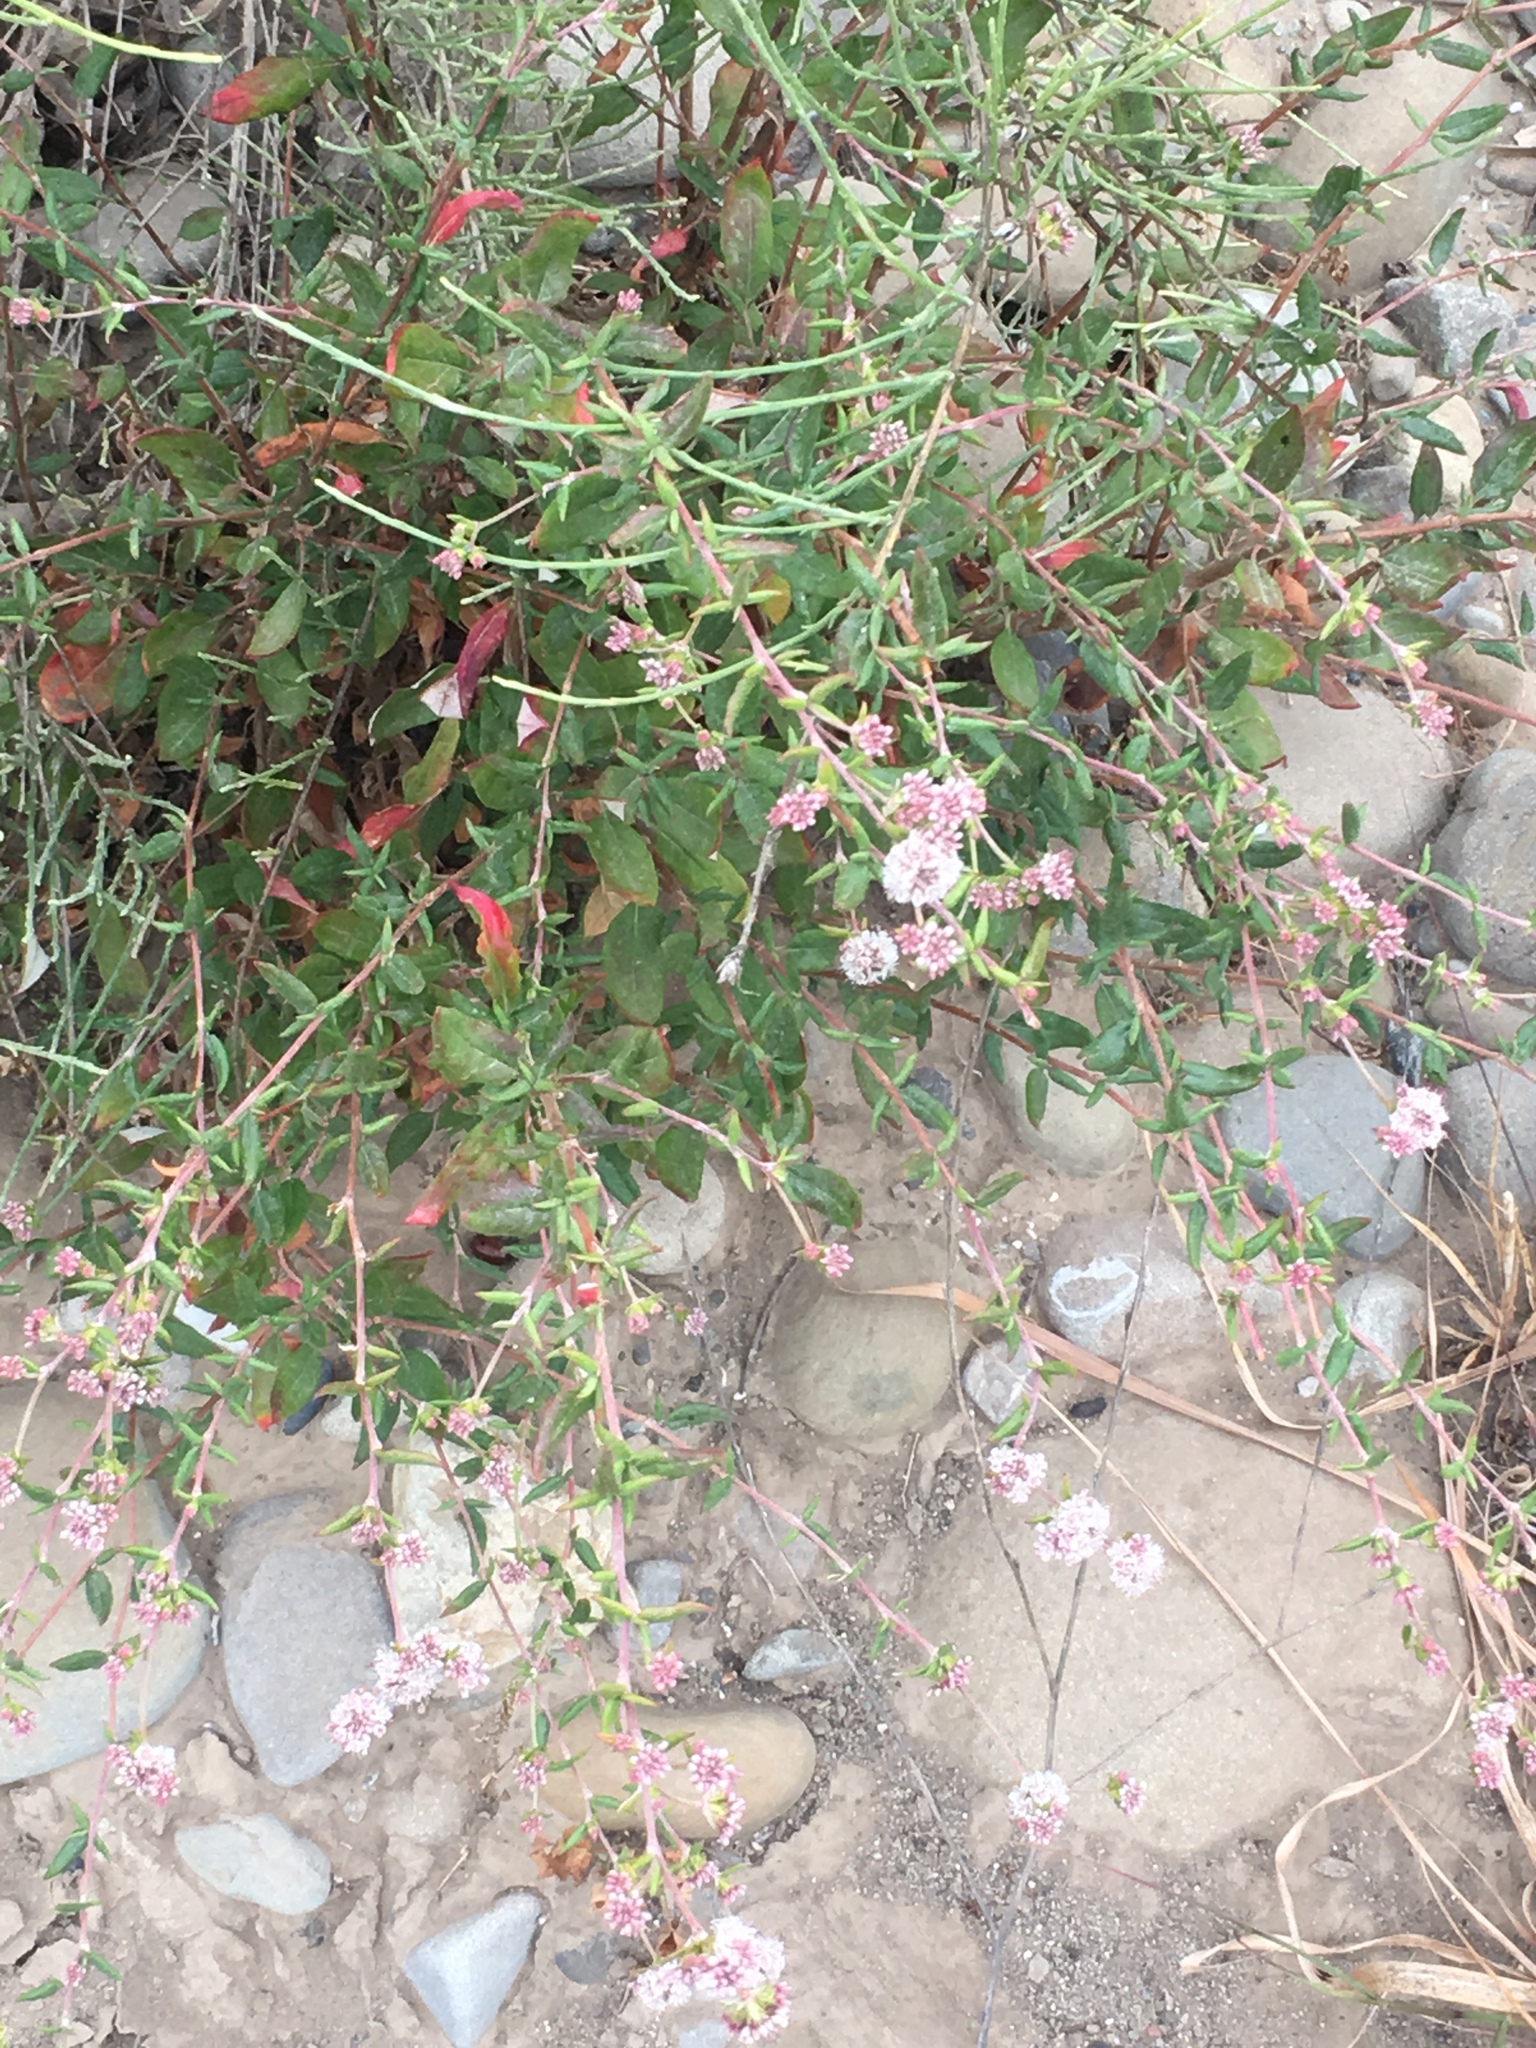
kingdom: Plantae
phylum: Tracheophyta
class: Magnoliopsida
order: Caryophyllales
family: Polygonaceae
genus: Eriogonum
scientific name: Eriogonum parvifolium
